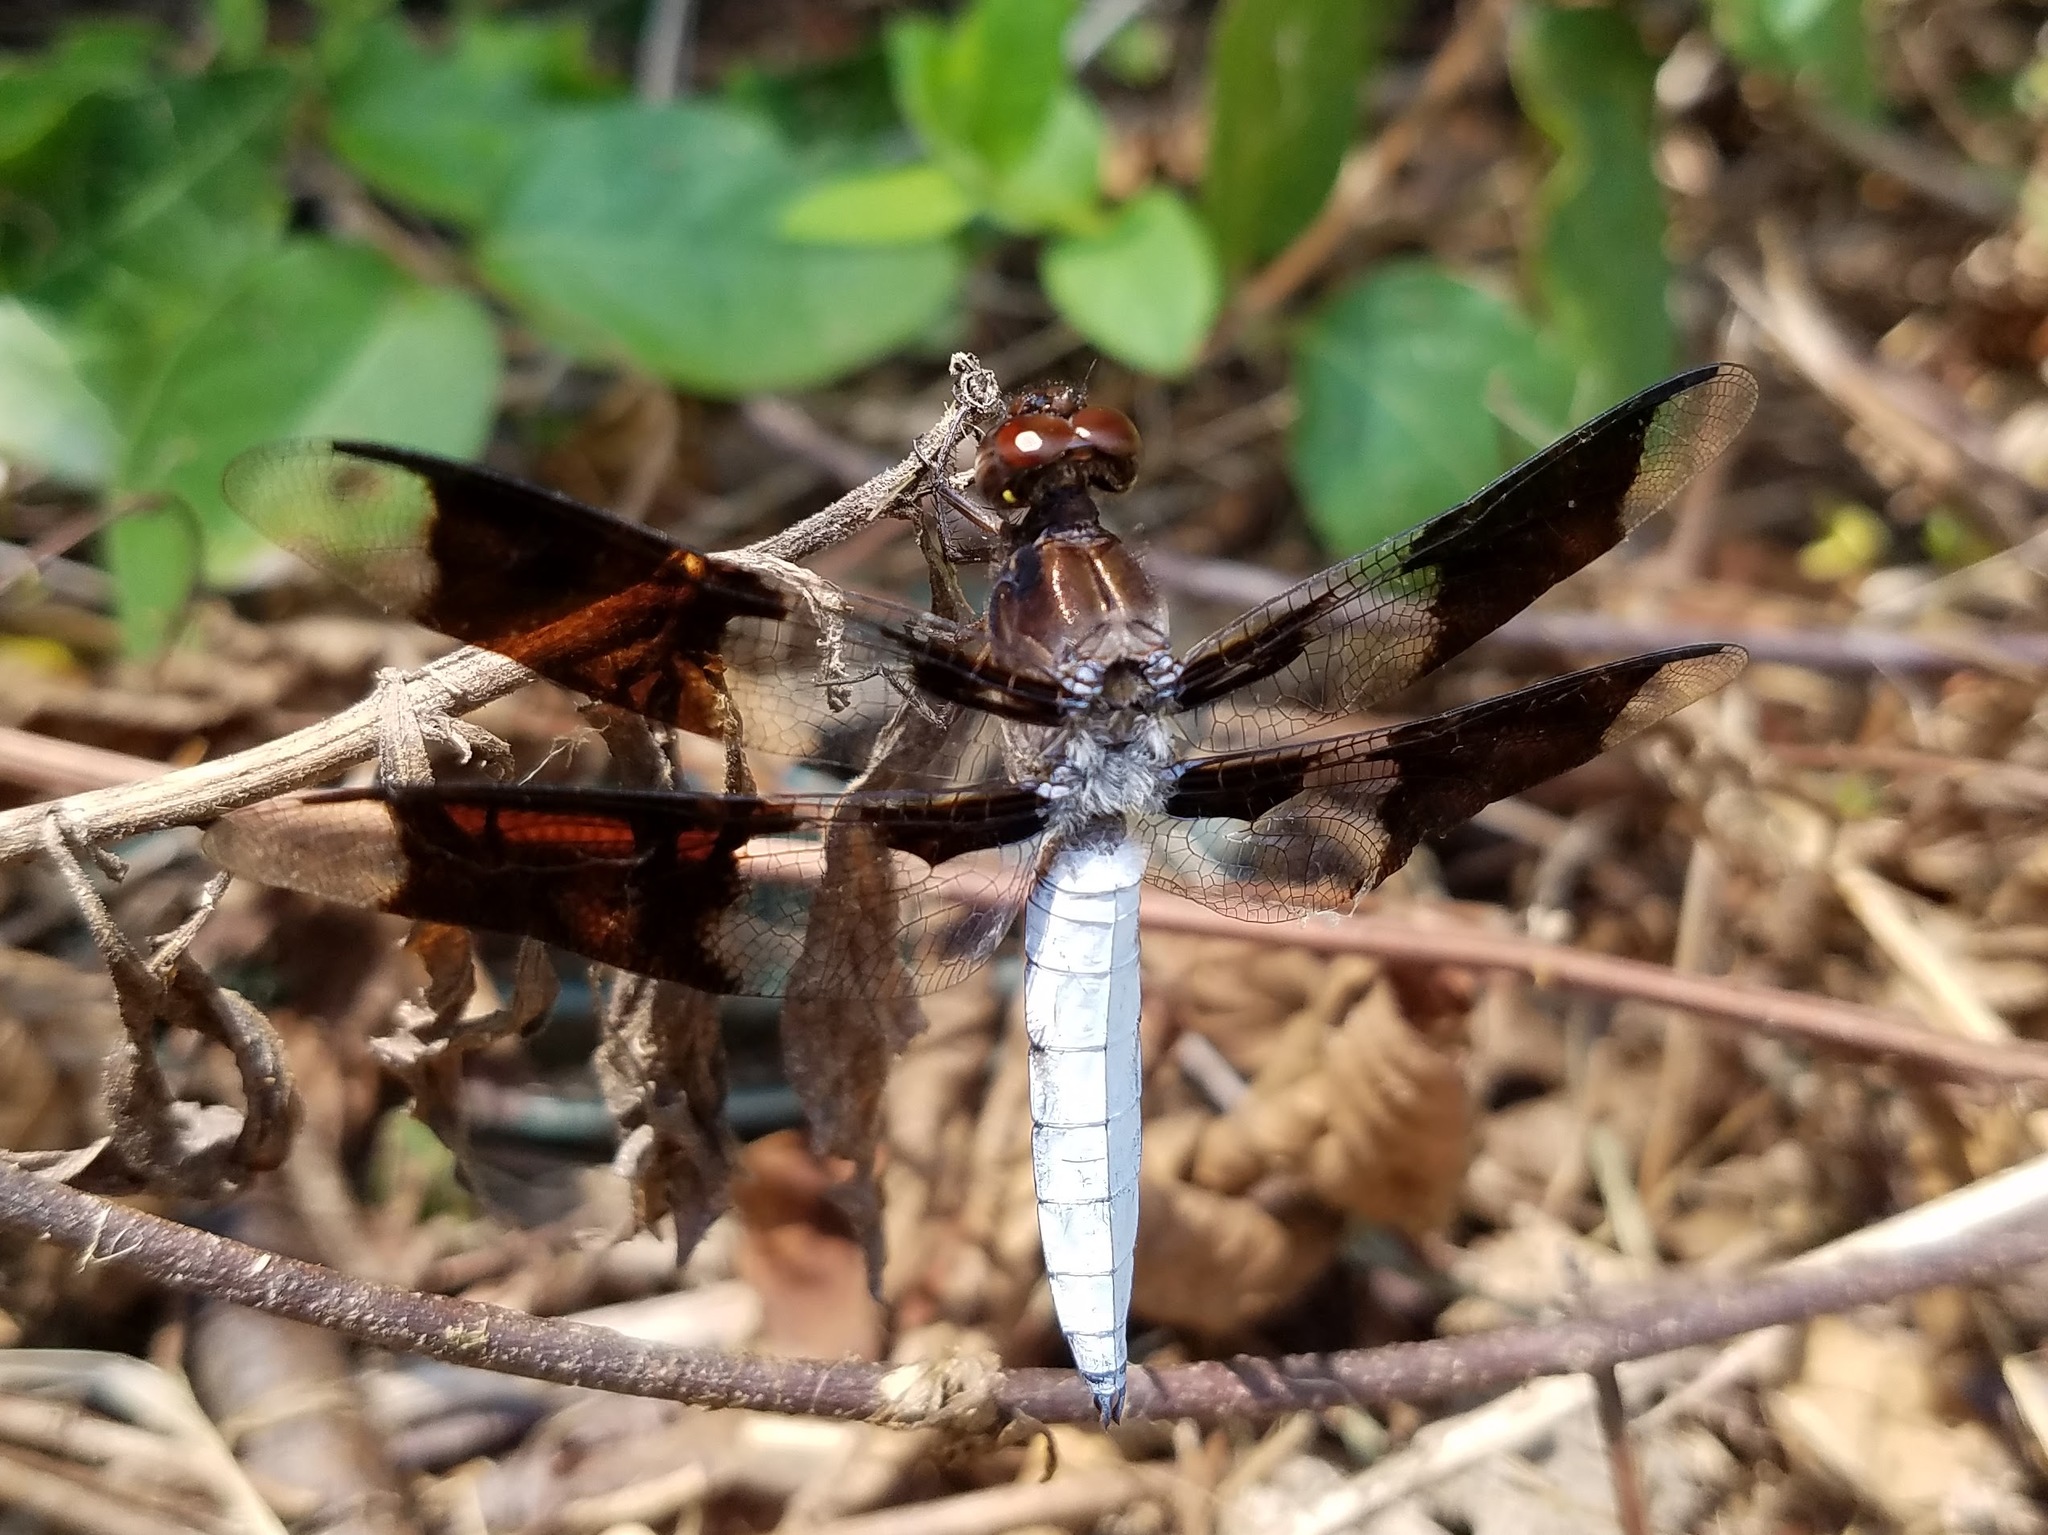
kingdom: Animalia
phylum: Arthropoda
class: Insecta
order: Odonata
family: Libellulidae
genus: Plathemis
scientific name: Plathemis lydia
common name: Common whitetail
